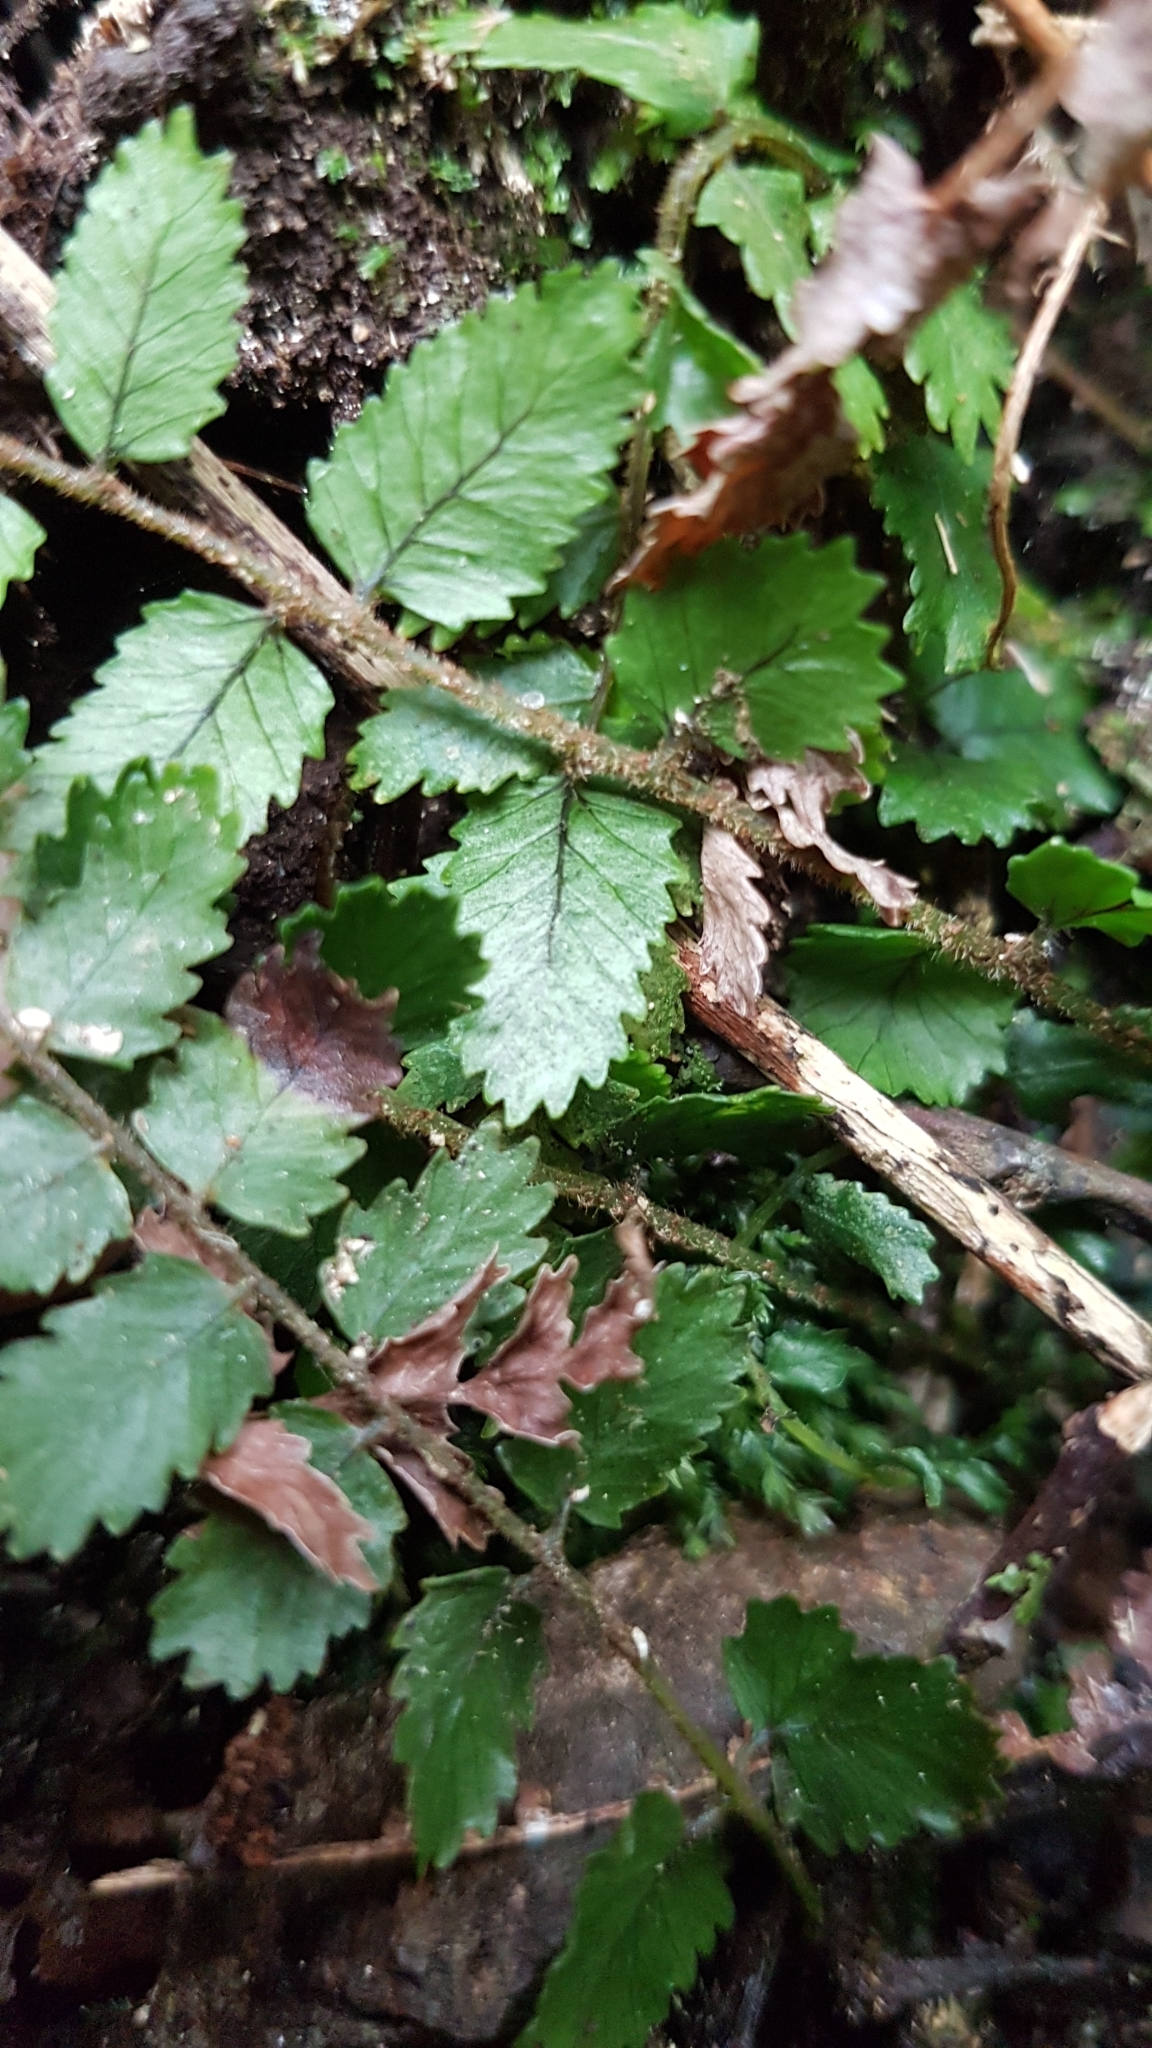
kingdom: Plantae
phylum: Tracheophyta
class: Polypodiopsida
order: Polypodiales
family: Blechnaceae
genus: Icarus
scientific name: Icarus filiformis
